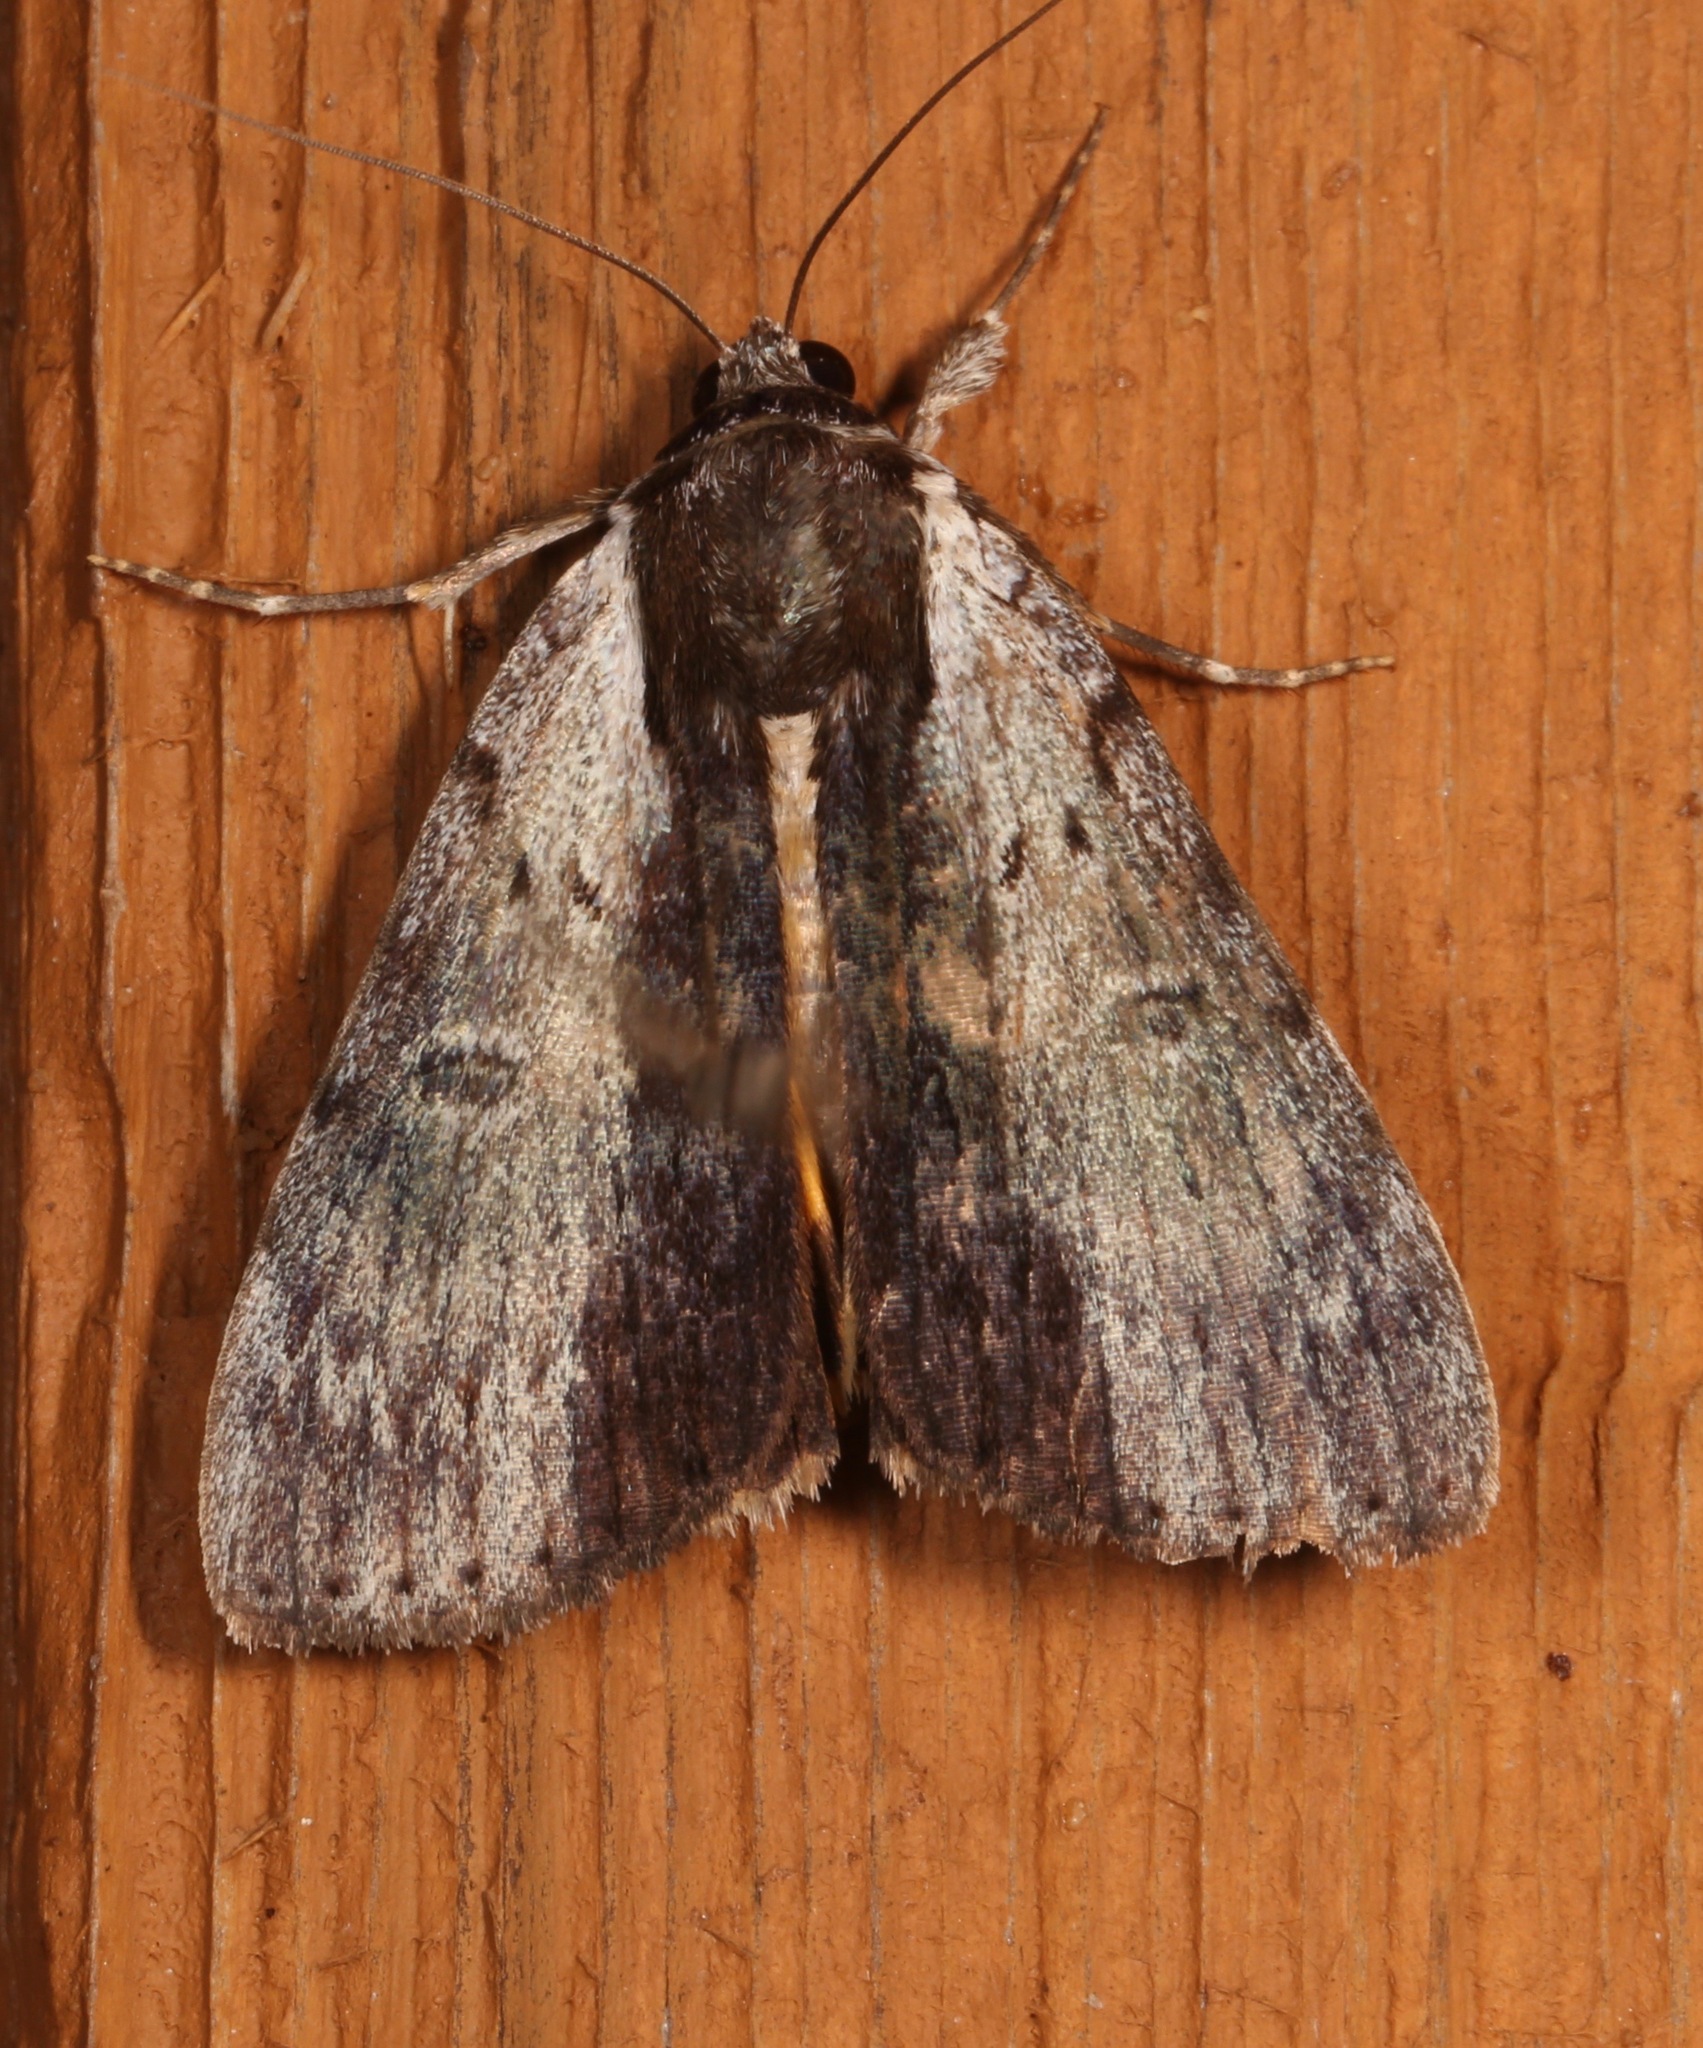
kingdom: Animalia
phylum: Arthropoda
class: Insecta
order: Lepidoptera
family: Erebidae
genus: Catocala
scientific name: Catocala gracilis
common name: Graceful underwing
